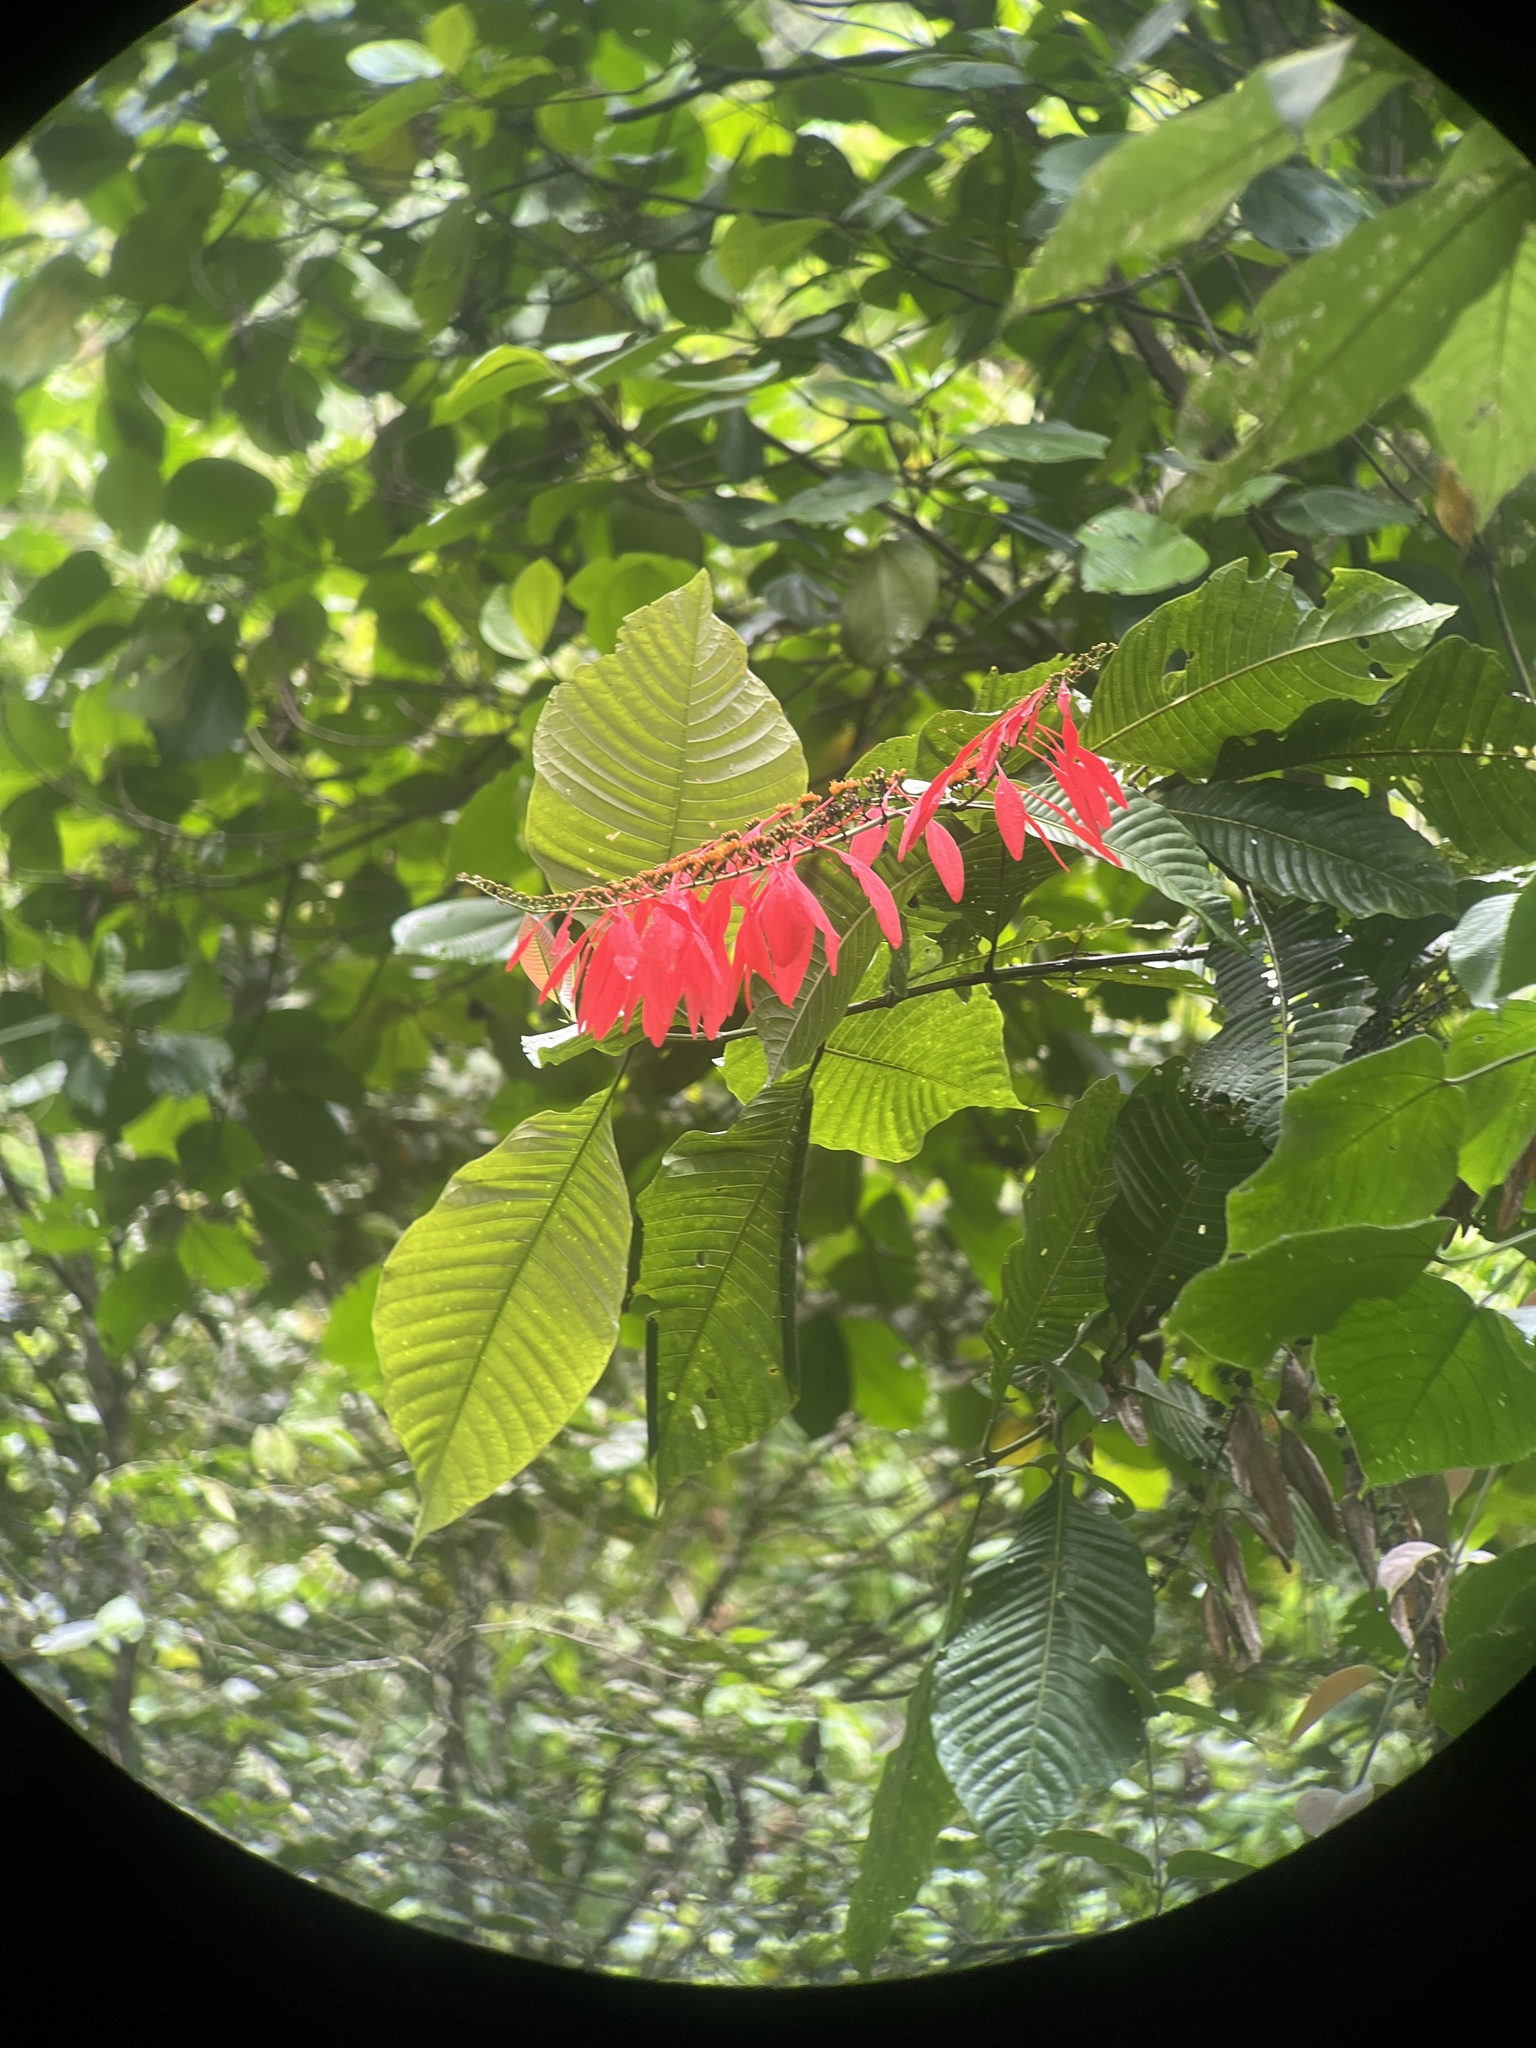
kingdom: Plantae
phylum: Tracheophyta
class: Magnoliopsida
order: Gentianales
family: Rubiaceae
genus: Warszewiczia
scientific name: Warszewiczia coccinea
